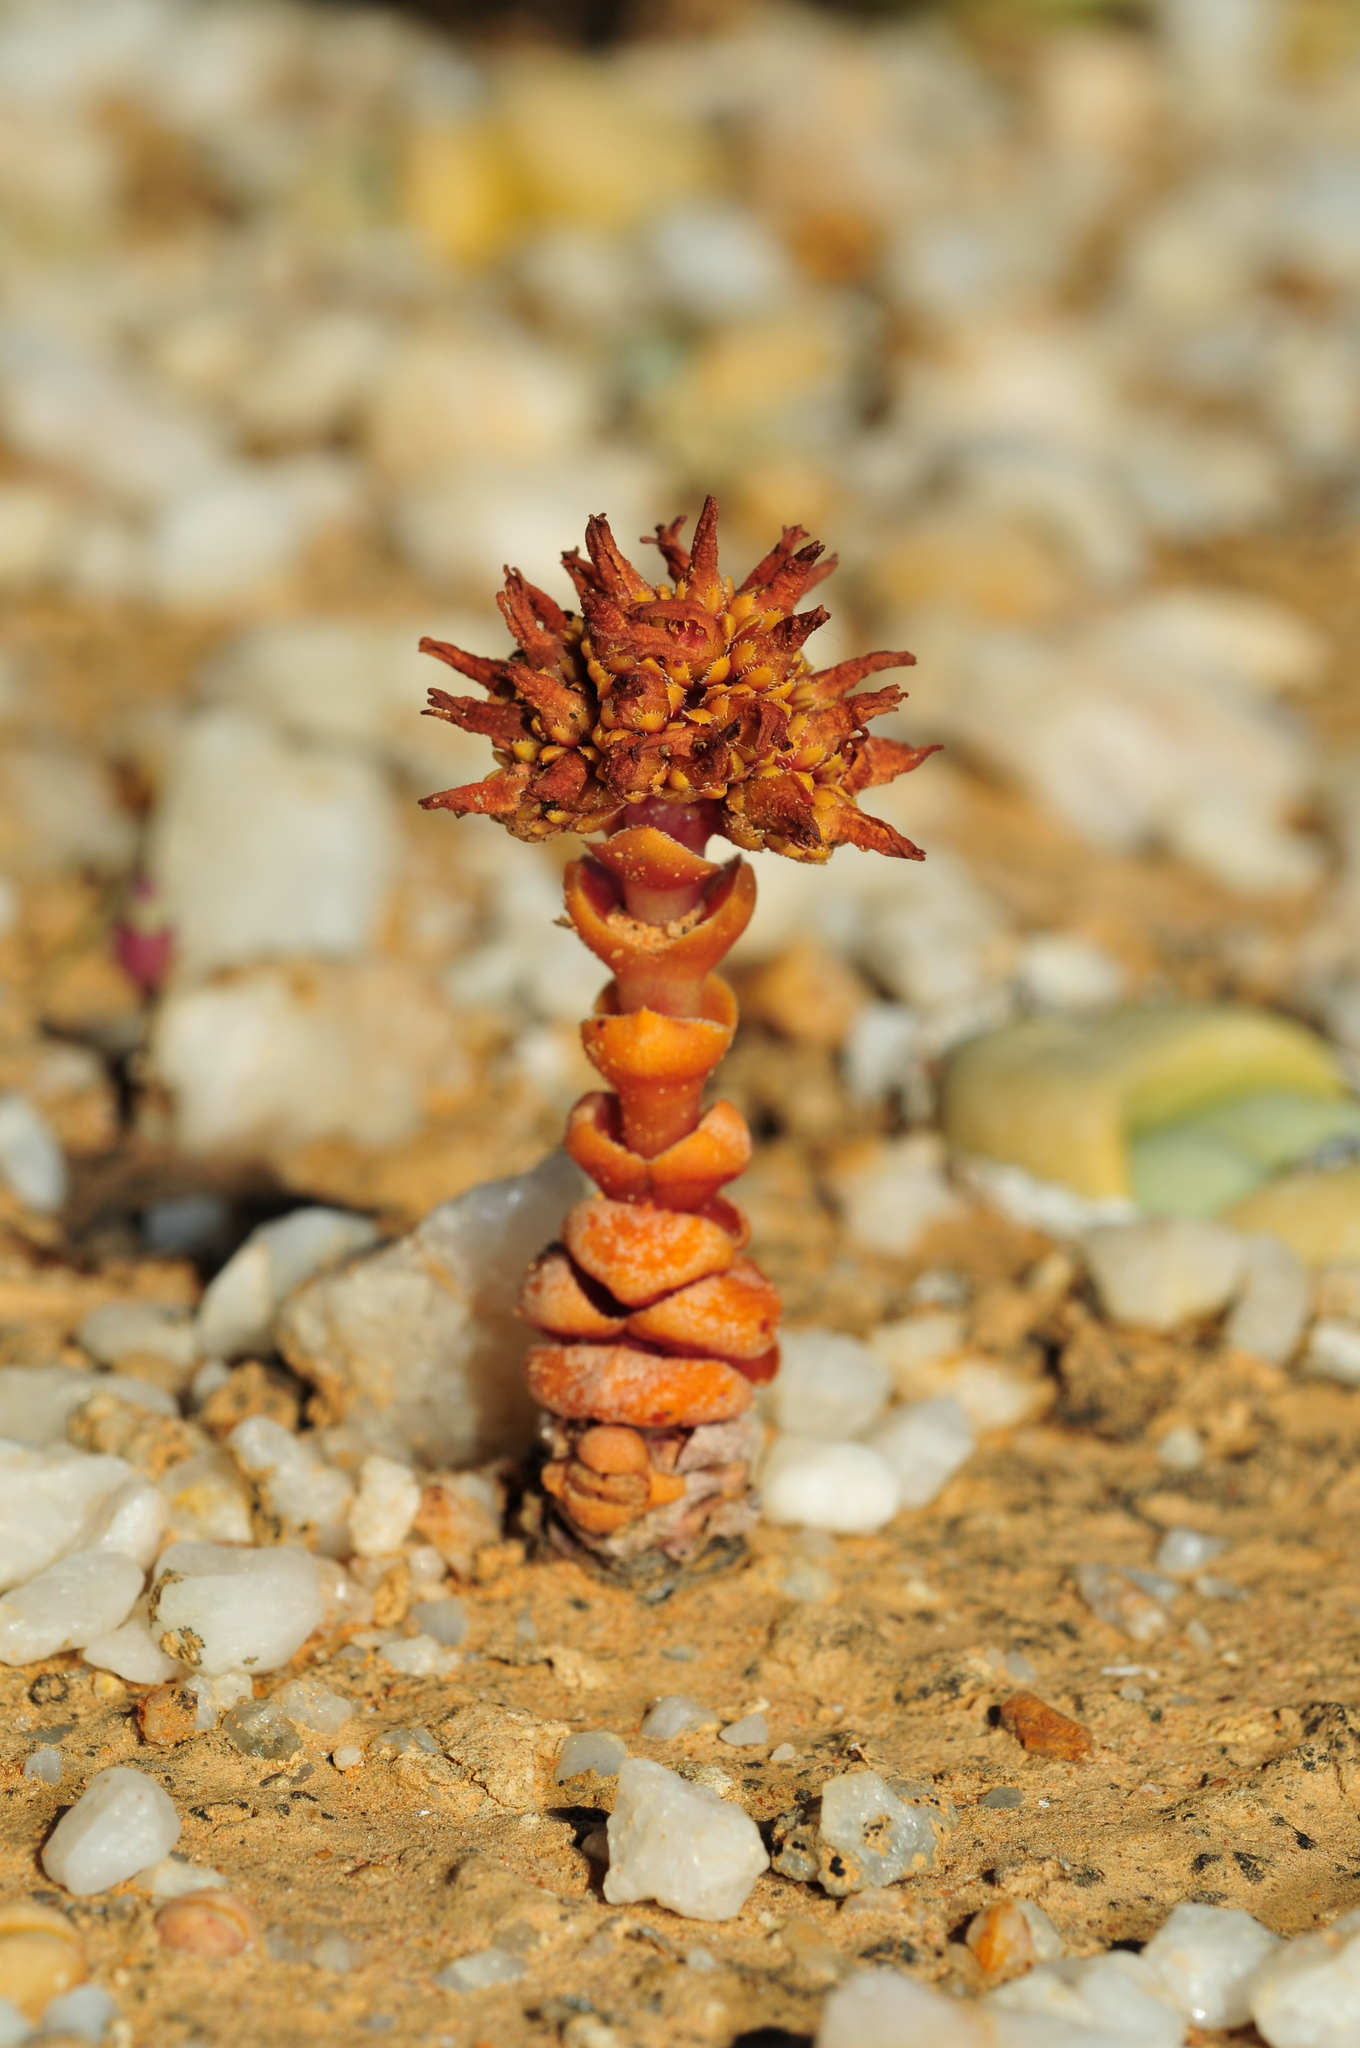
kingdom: Plantae
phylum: Tracheophyta
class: Magnoliopsida
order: Saxifragales
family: Crassulaceae
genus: Crassula
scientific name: Crassula columnaris
